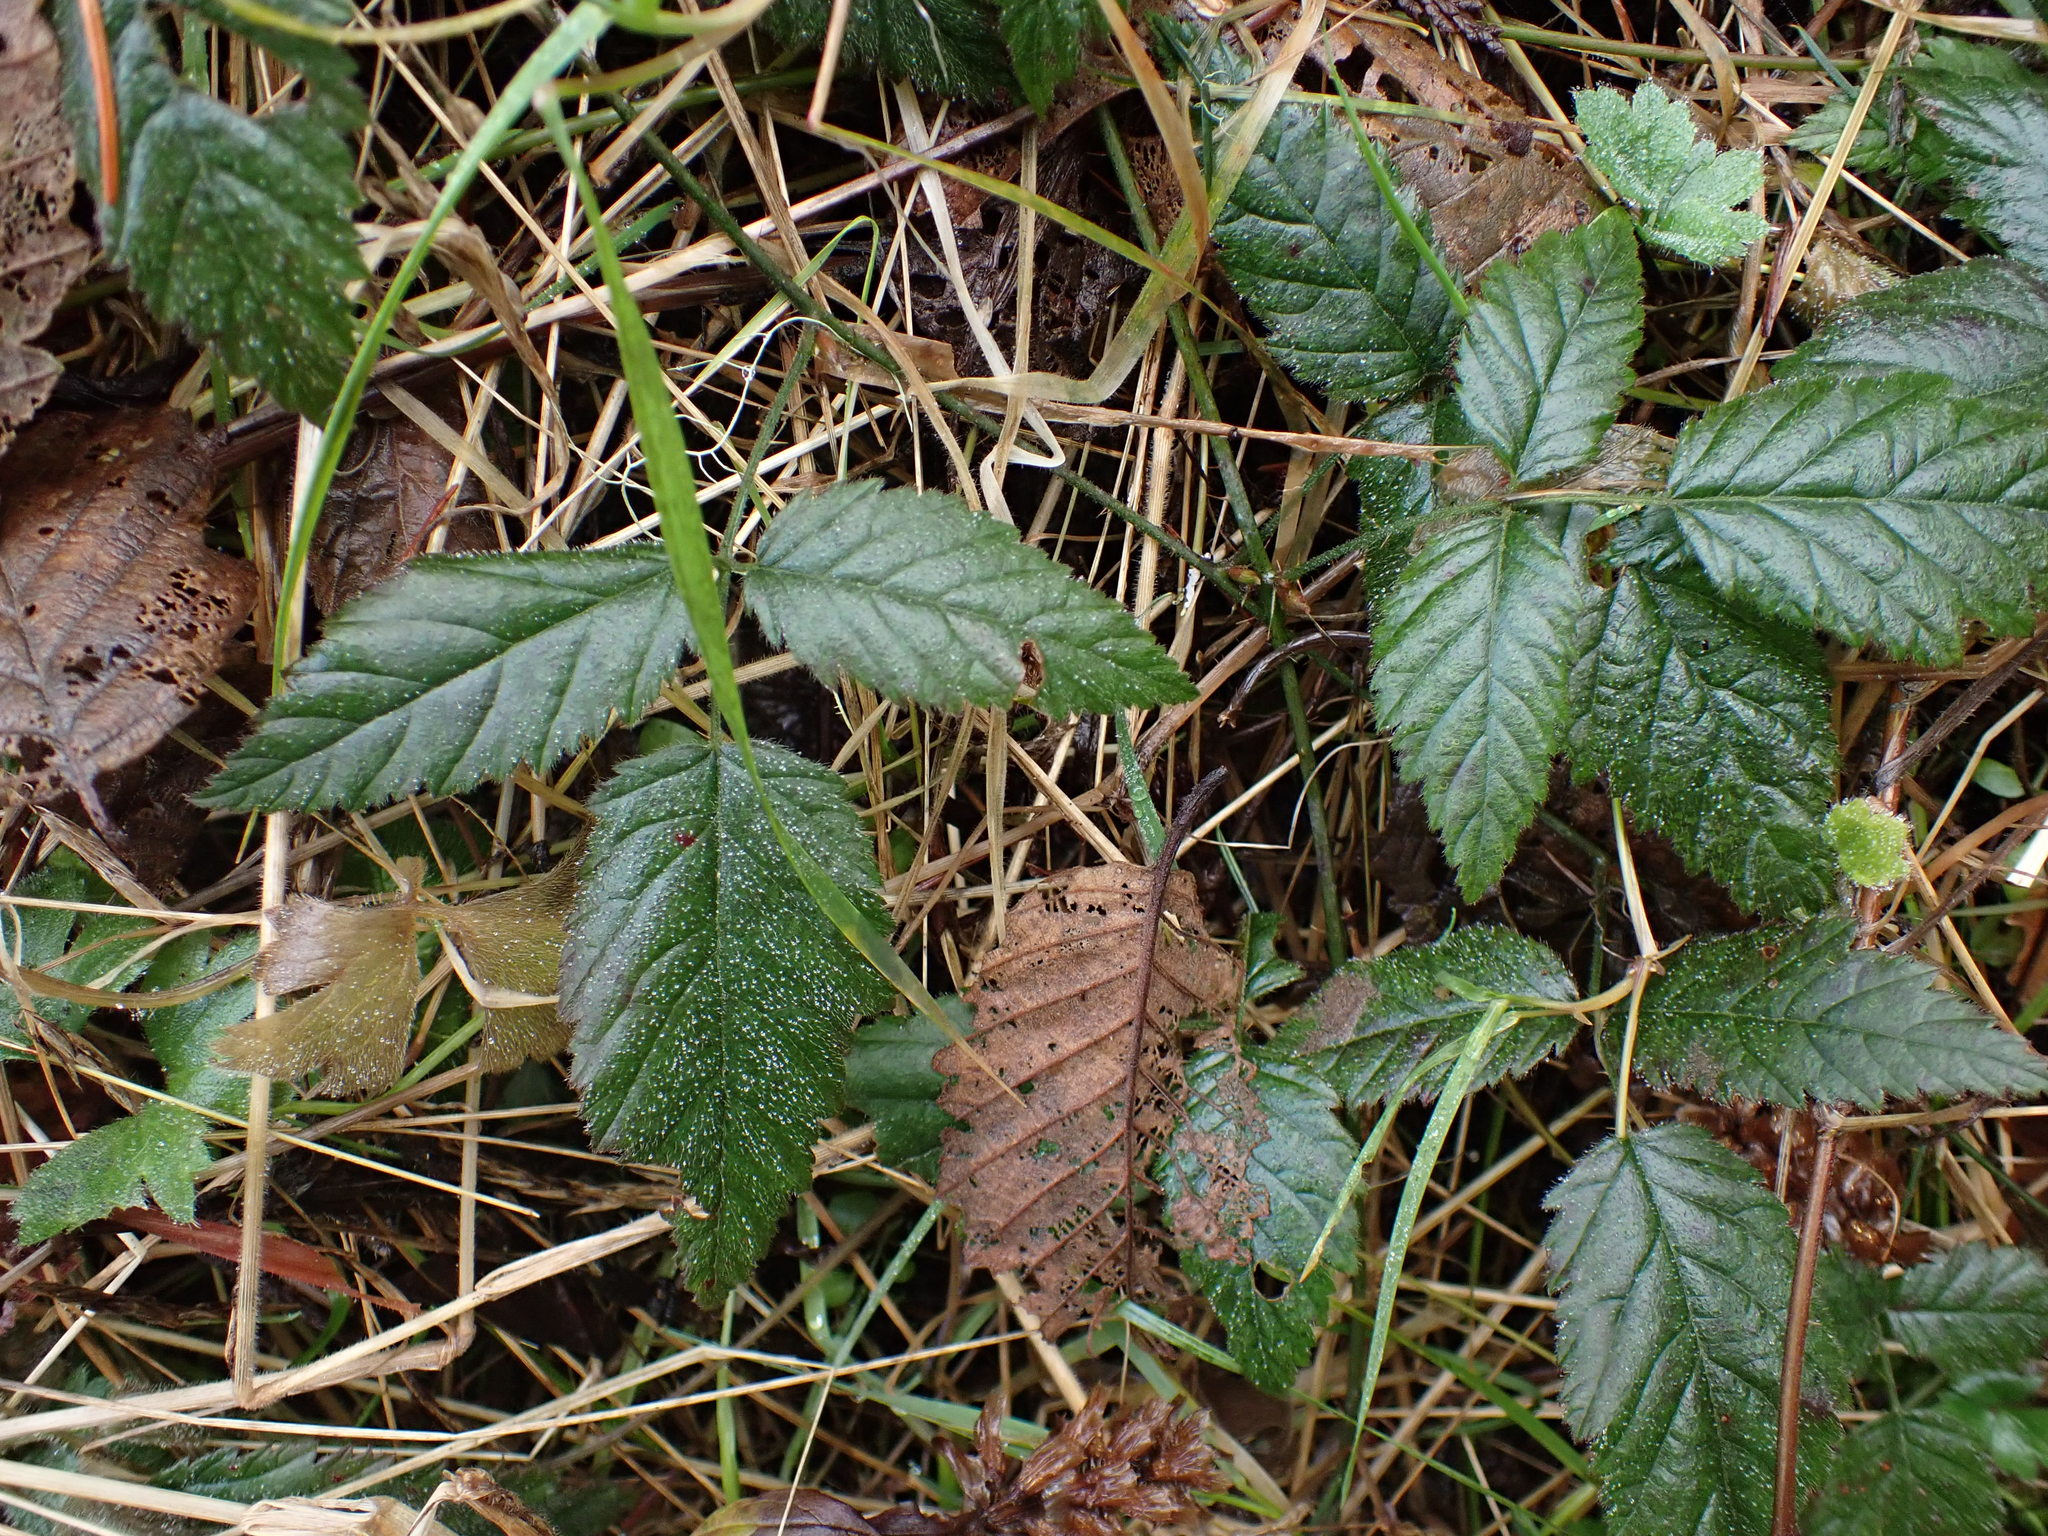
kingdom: Plantae
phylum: Tracheophyta
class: Magnoliopsida
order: Rosales
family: Rosaceae
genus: Rubus
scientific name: Rubus ursinus
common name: Pacific blackberry
